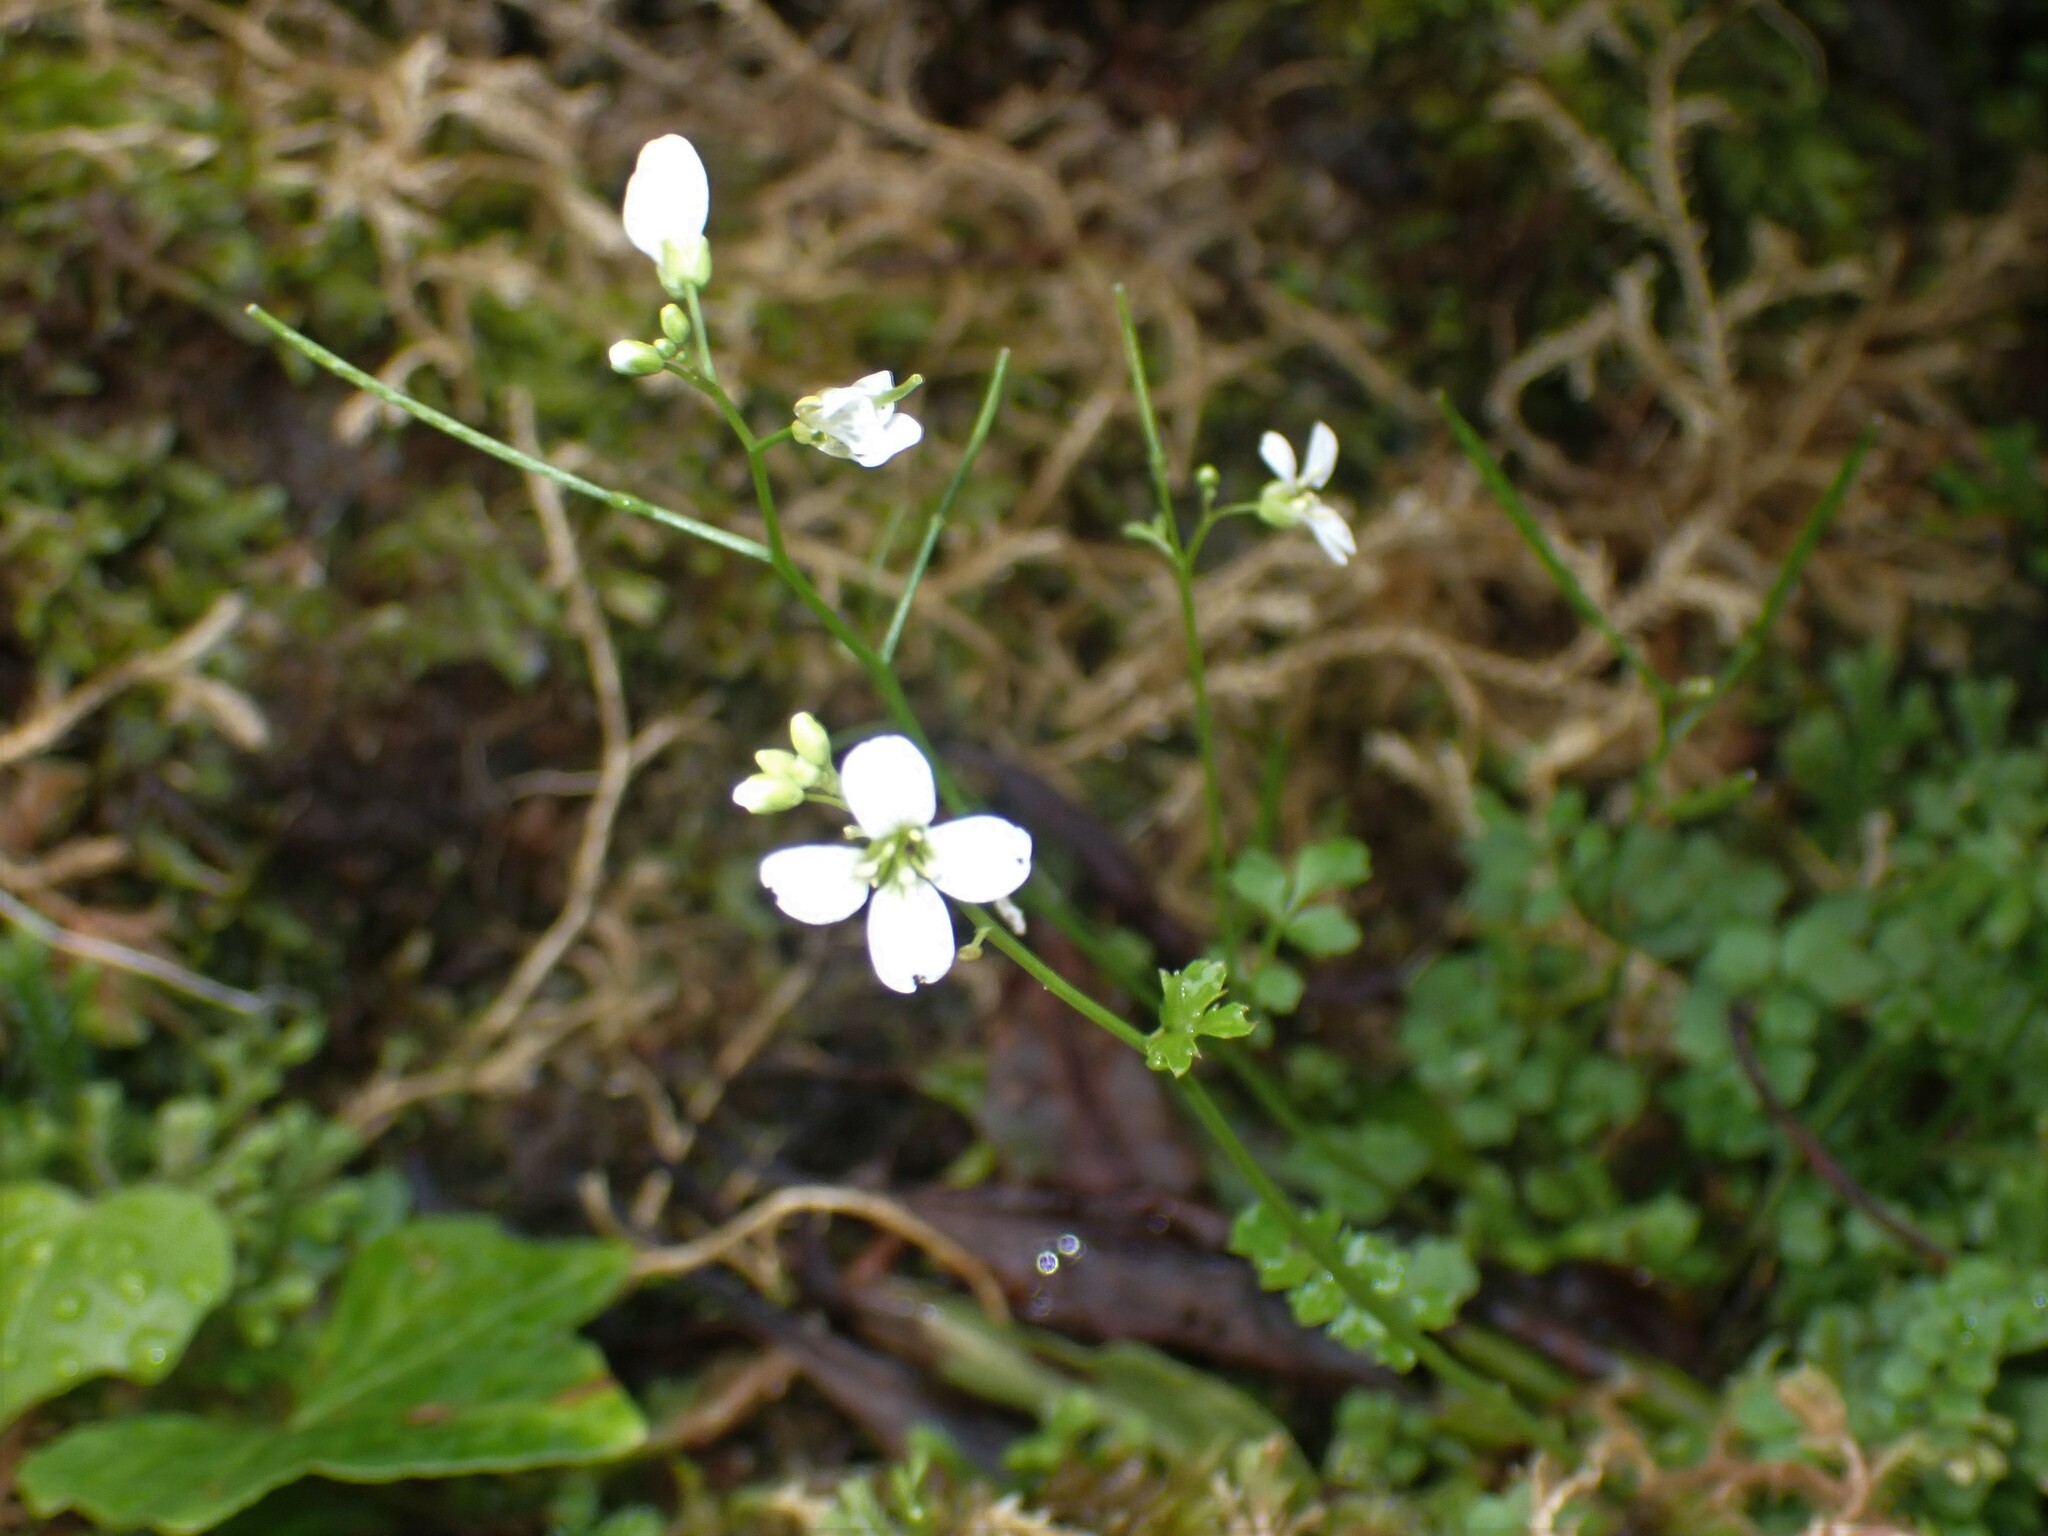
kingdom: Plantae
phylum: Tracheophyta
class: Magnoliopsida
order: Brassicales
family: Brassicaceae
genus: Cardamine
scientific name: Cardamine caldeirarum
